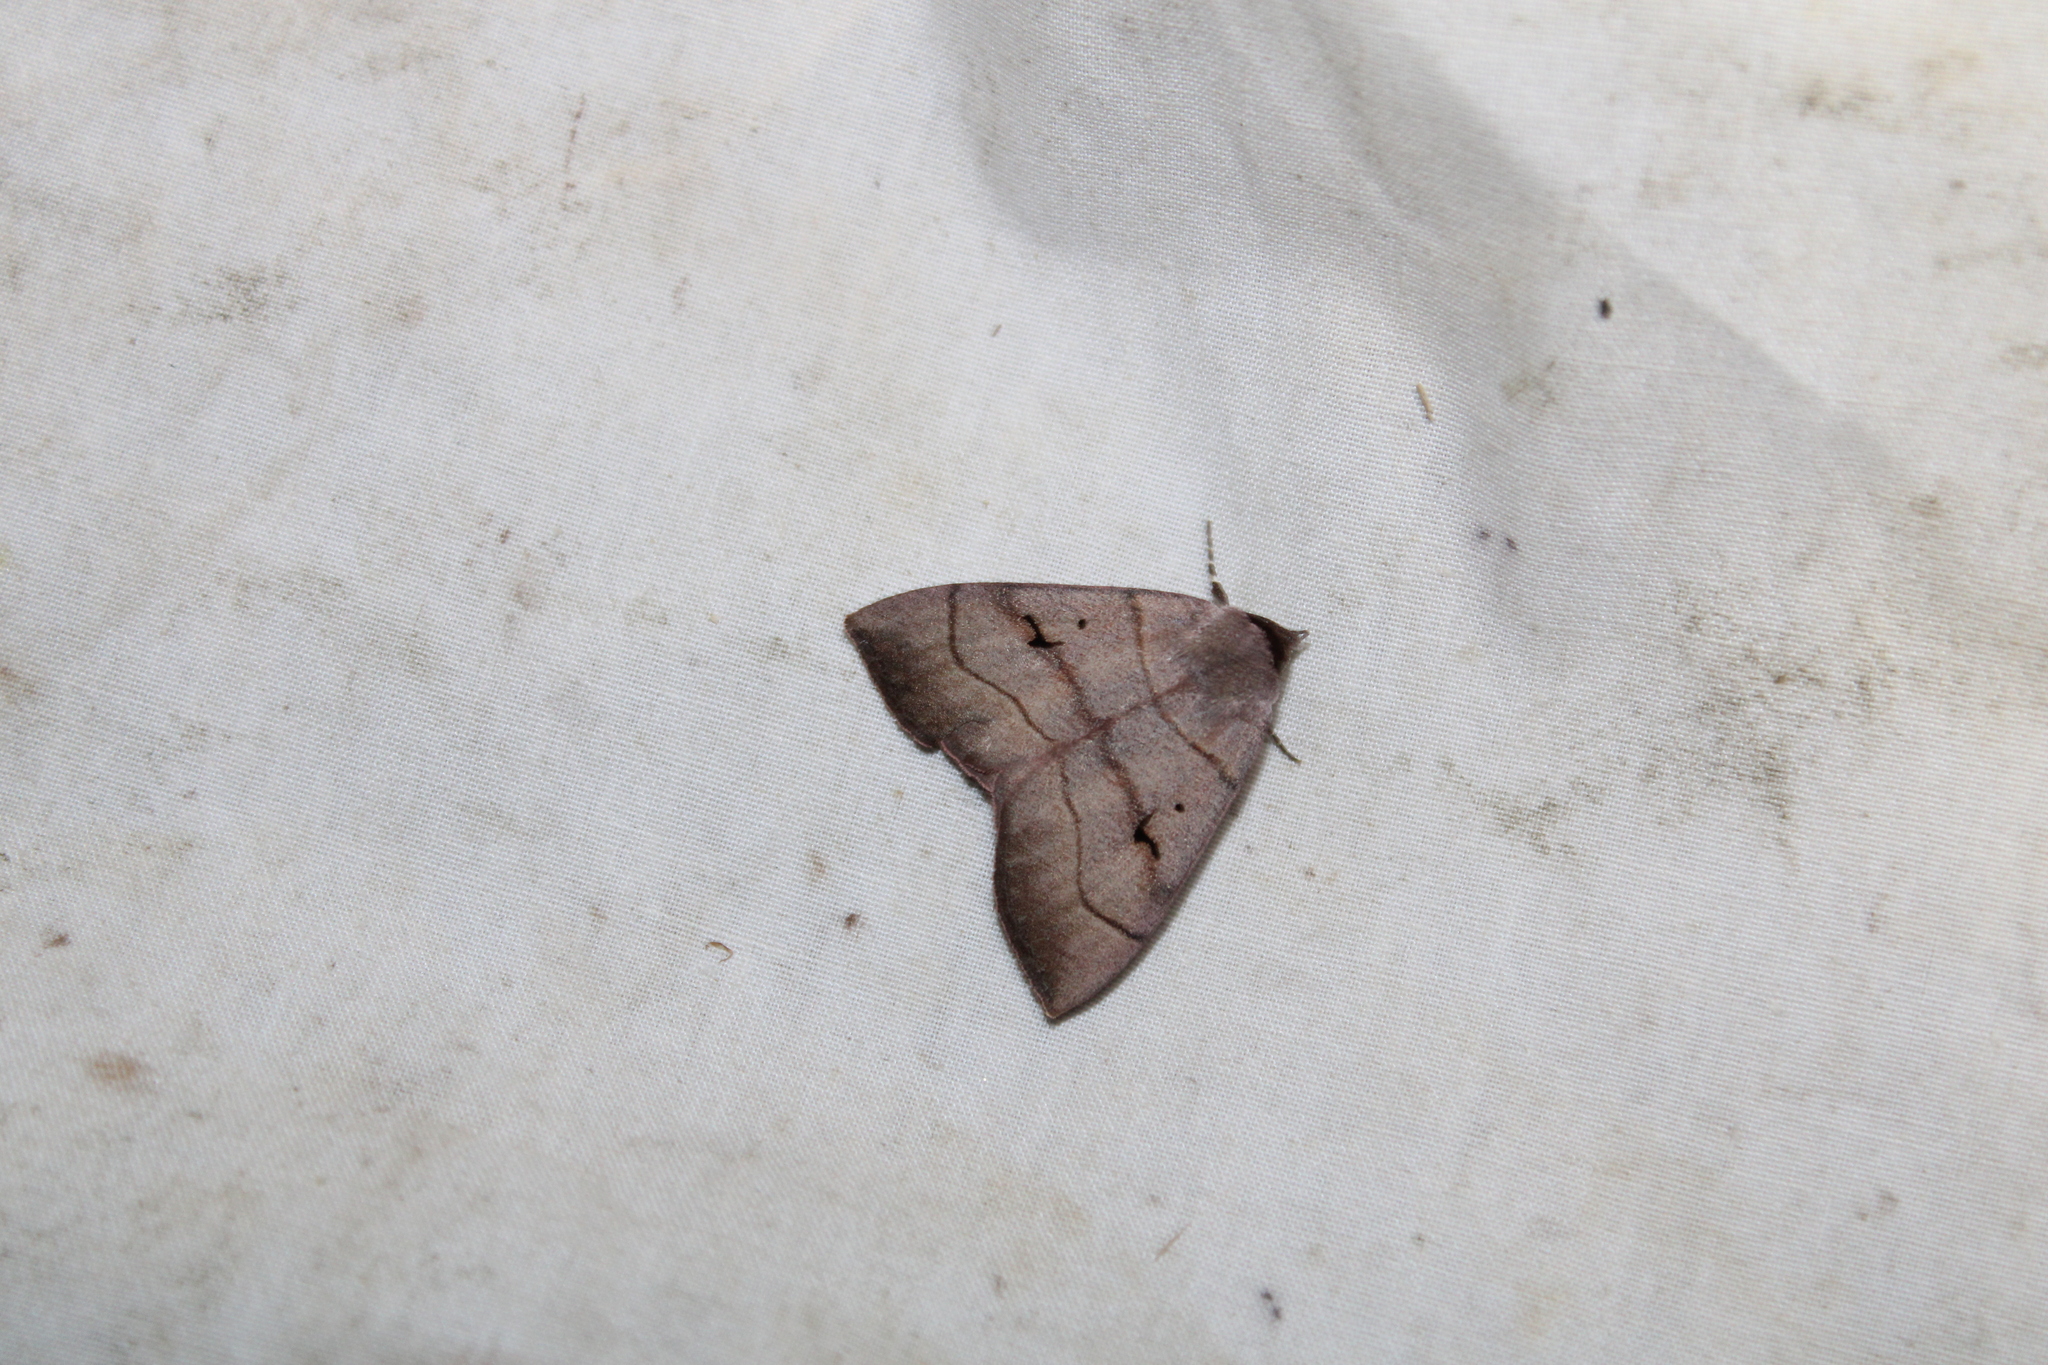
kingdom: Animalia
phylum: Arthropoda
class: Insecta
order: Lepidoptera
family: Erebidae
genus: Panopoda
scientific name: Panopoda carneicosta
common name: Brown panopoda moth
